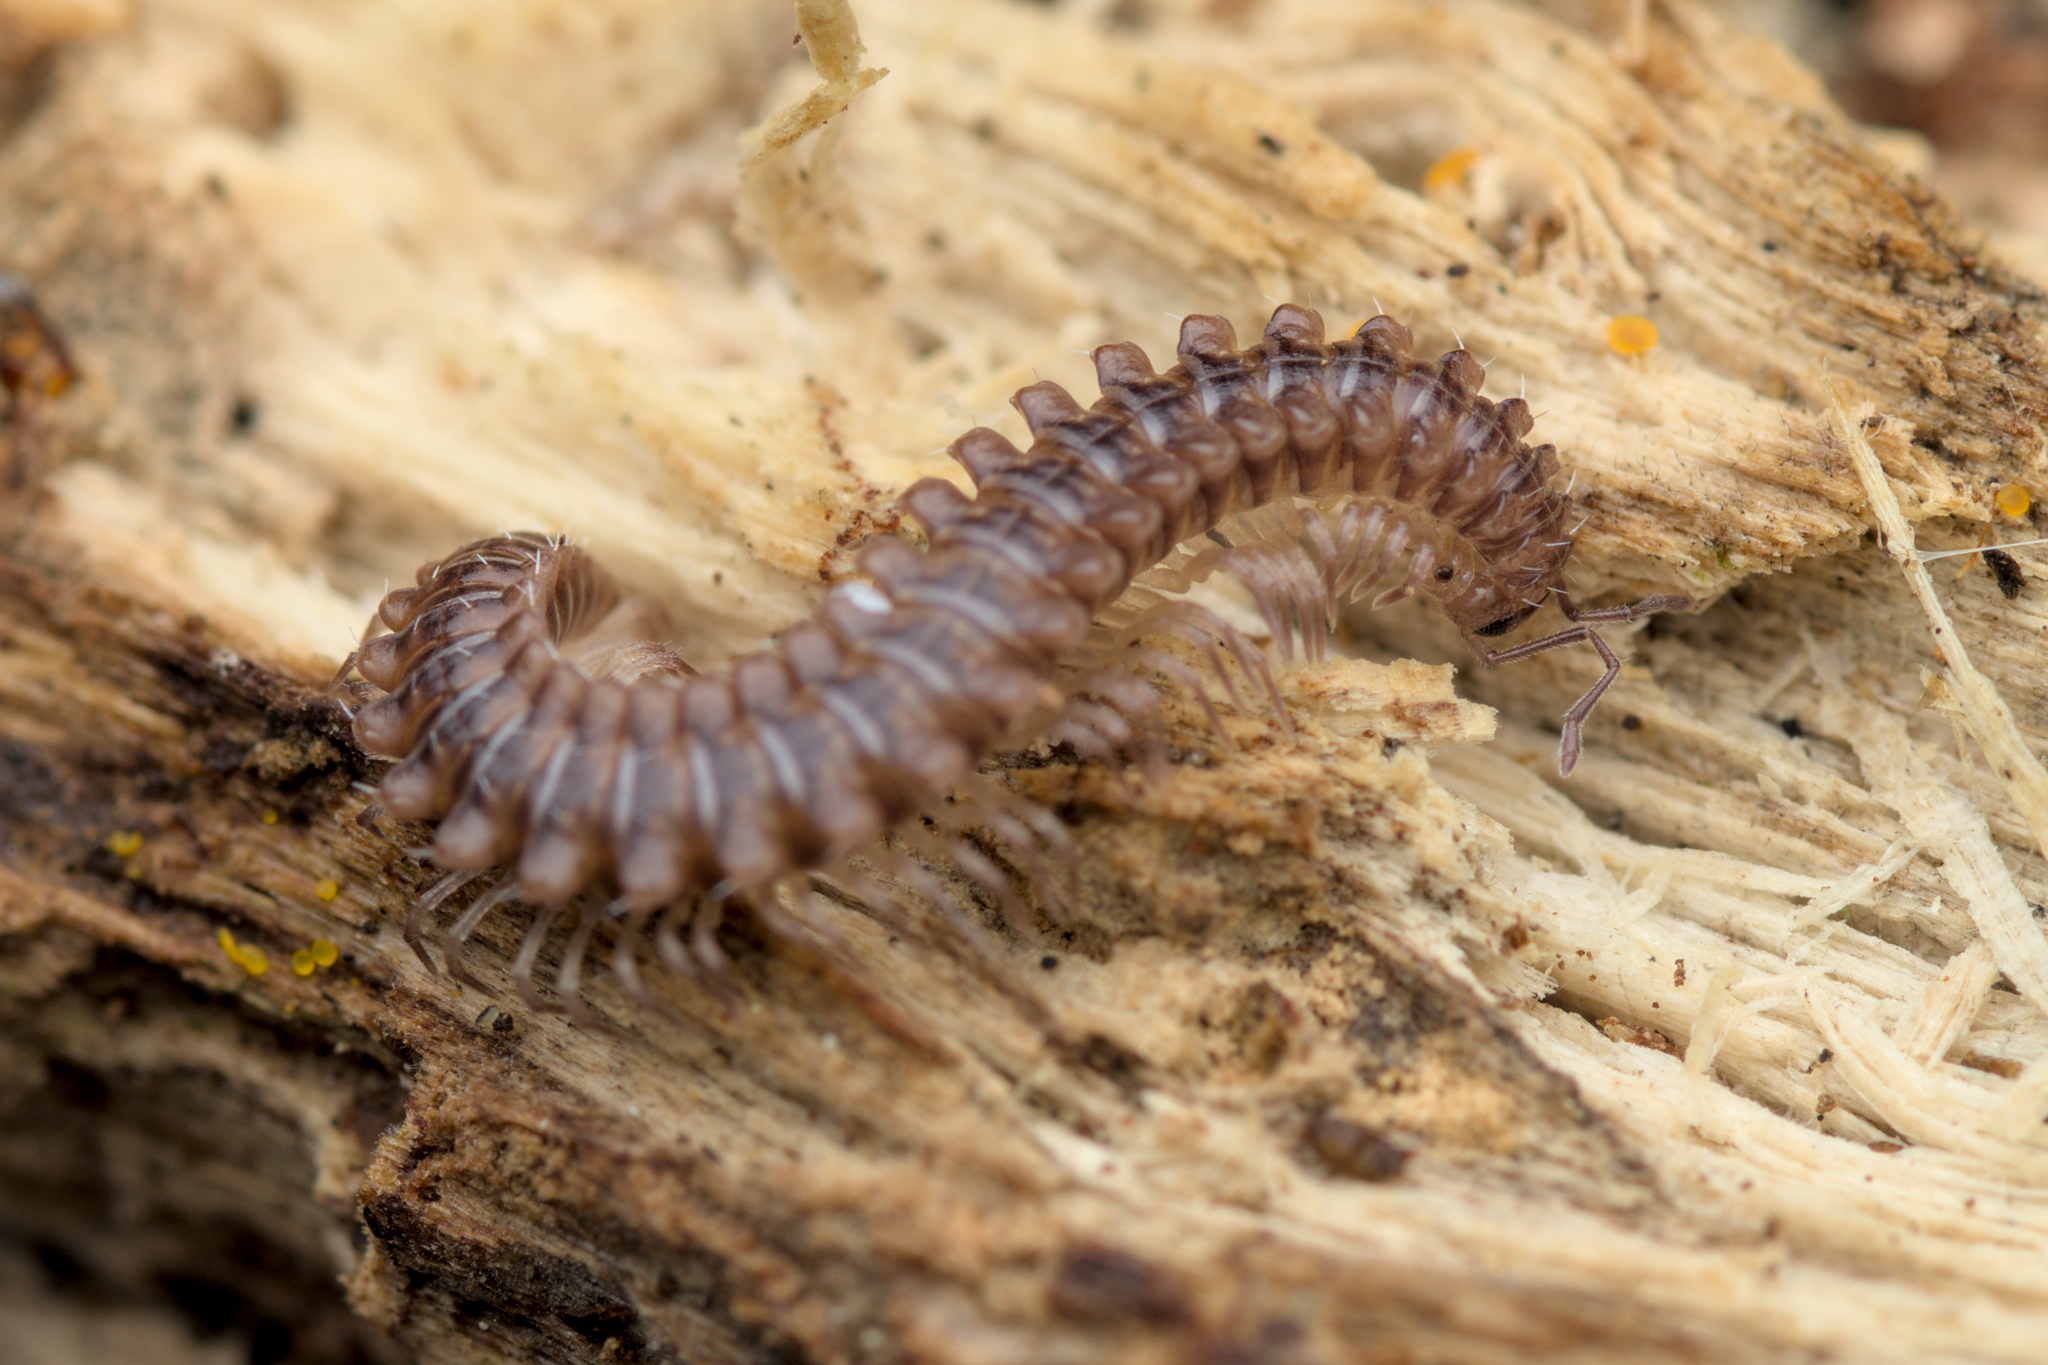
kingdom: Animalia
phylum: Arthropoda
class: Diplopoda
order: Chordeumatida
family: Craspedosomatidae
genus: Nanogona
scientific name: Nanogona polydesmoides
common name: Eyed flat-backed millipede
